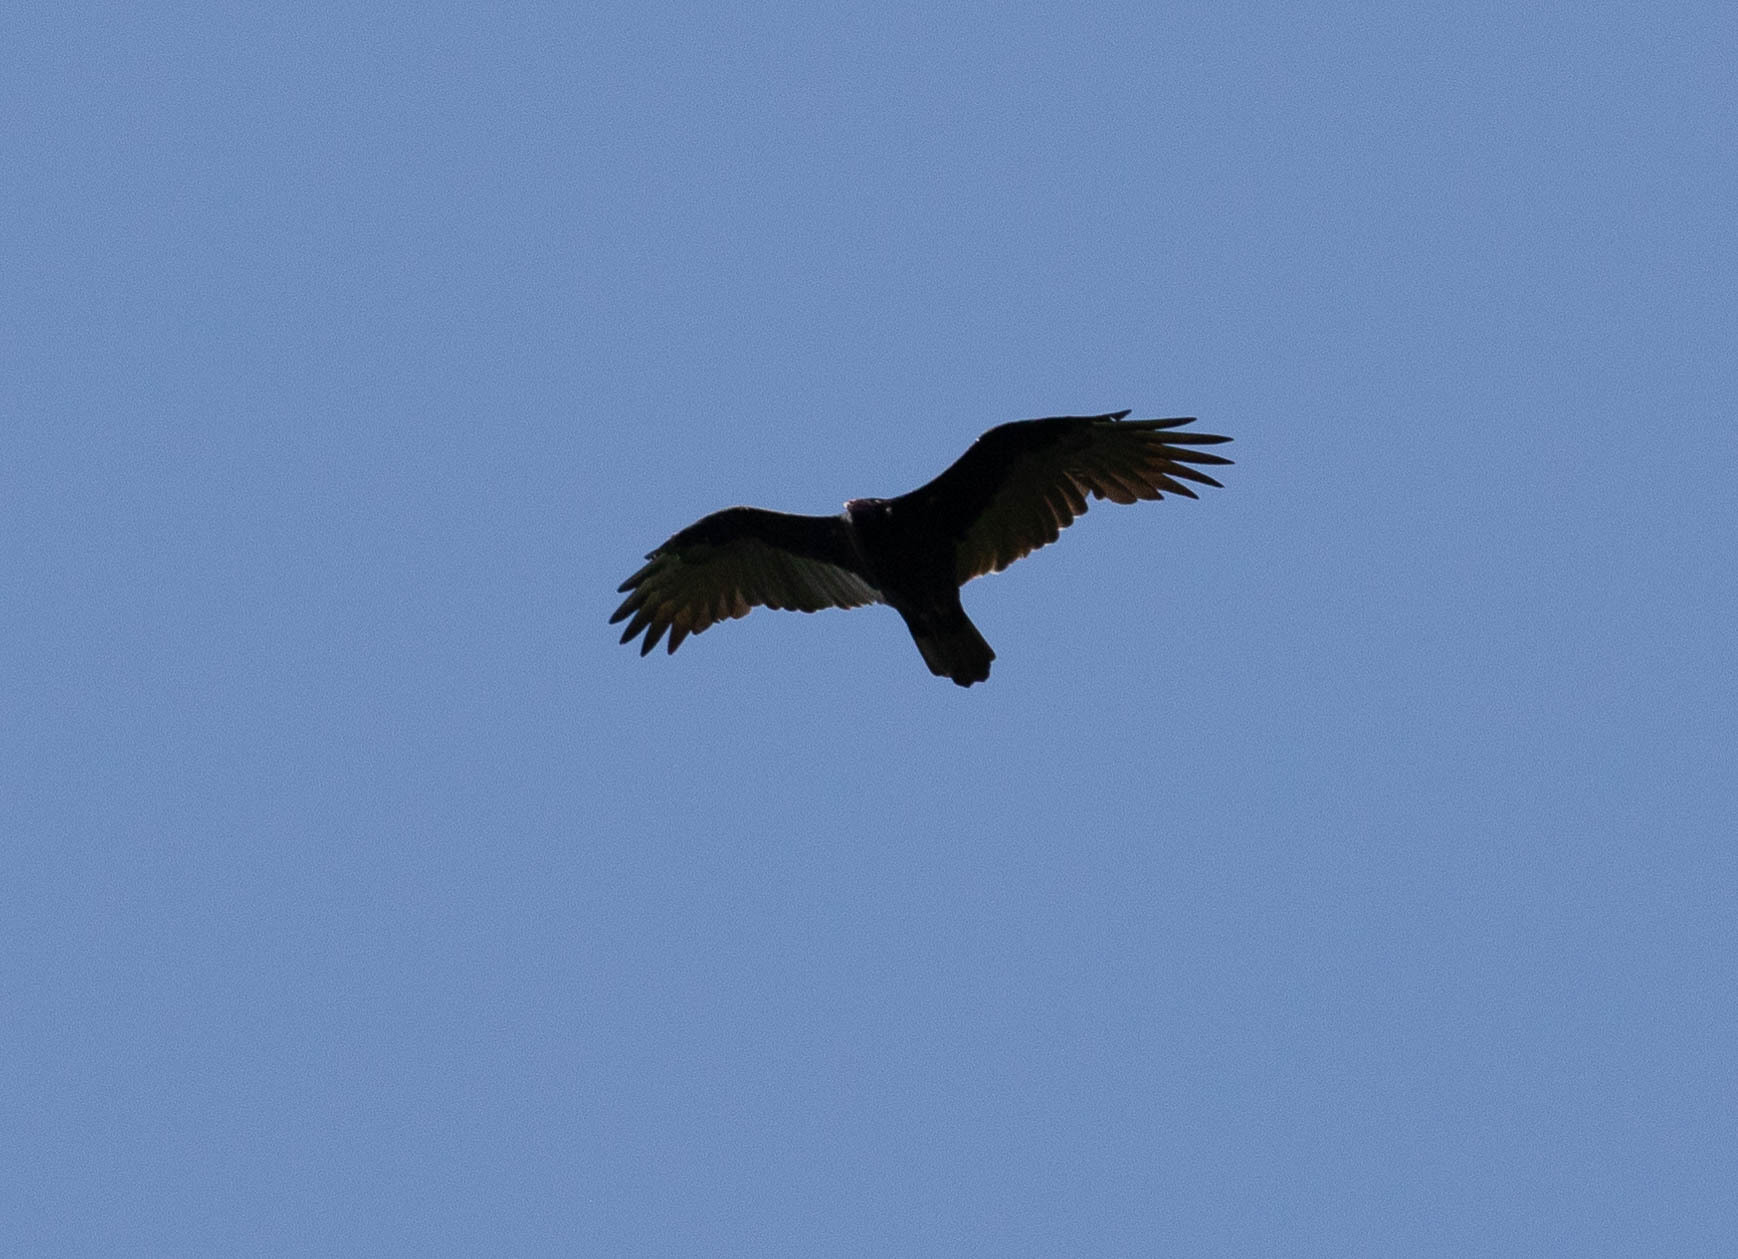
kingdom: Animalia
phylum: Chordata
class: Aves
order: Accipitriformes
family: Cathartidae
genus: Cathartes
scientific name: Cathartes aura
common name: Turkey vulture
